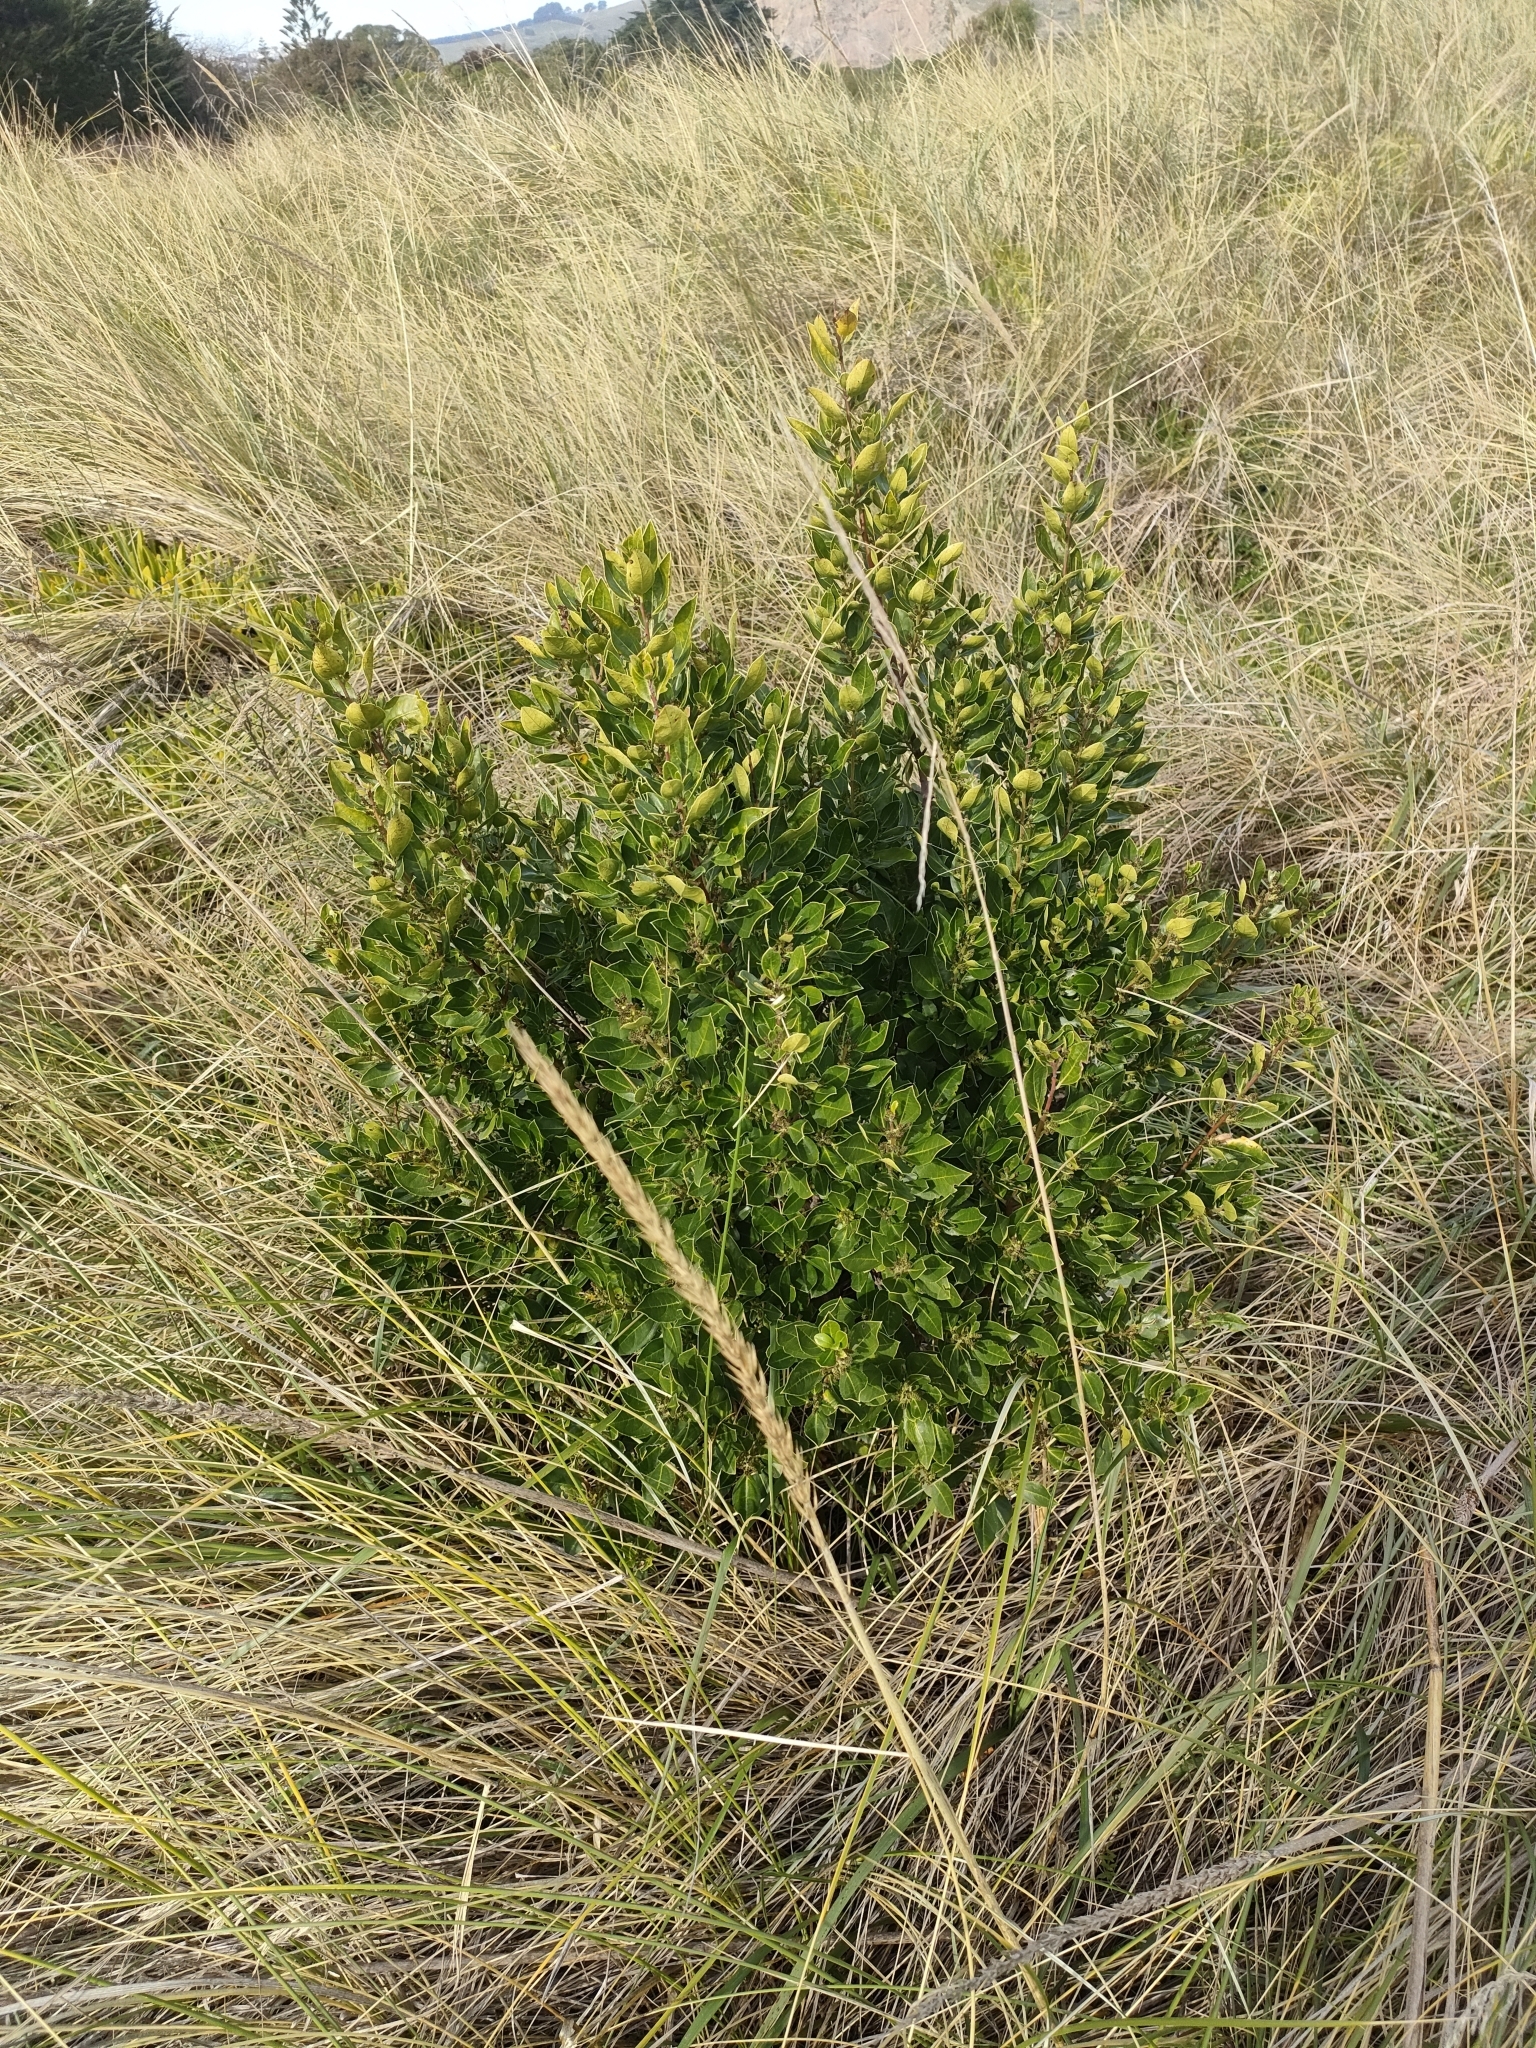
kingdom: Plantae
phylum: Tracheophyta
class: Magnoliopsida
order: Rosales
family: Rhamnaceae
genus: Rhamnus
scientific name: Rhamnus alaternus
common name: Mediterranean buckthorn
